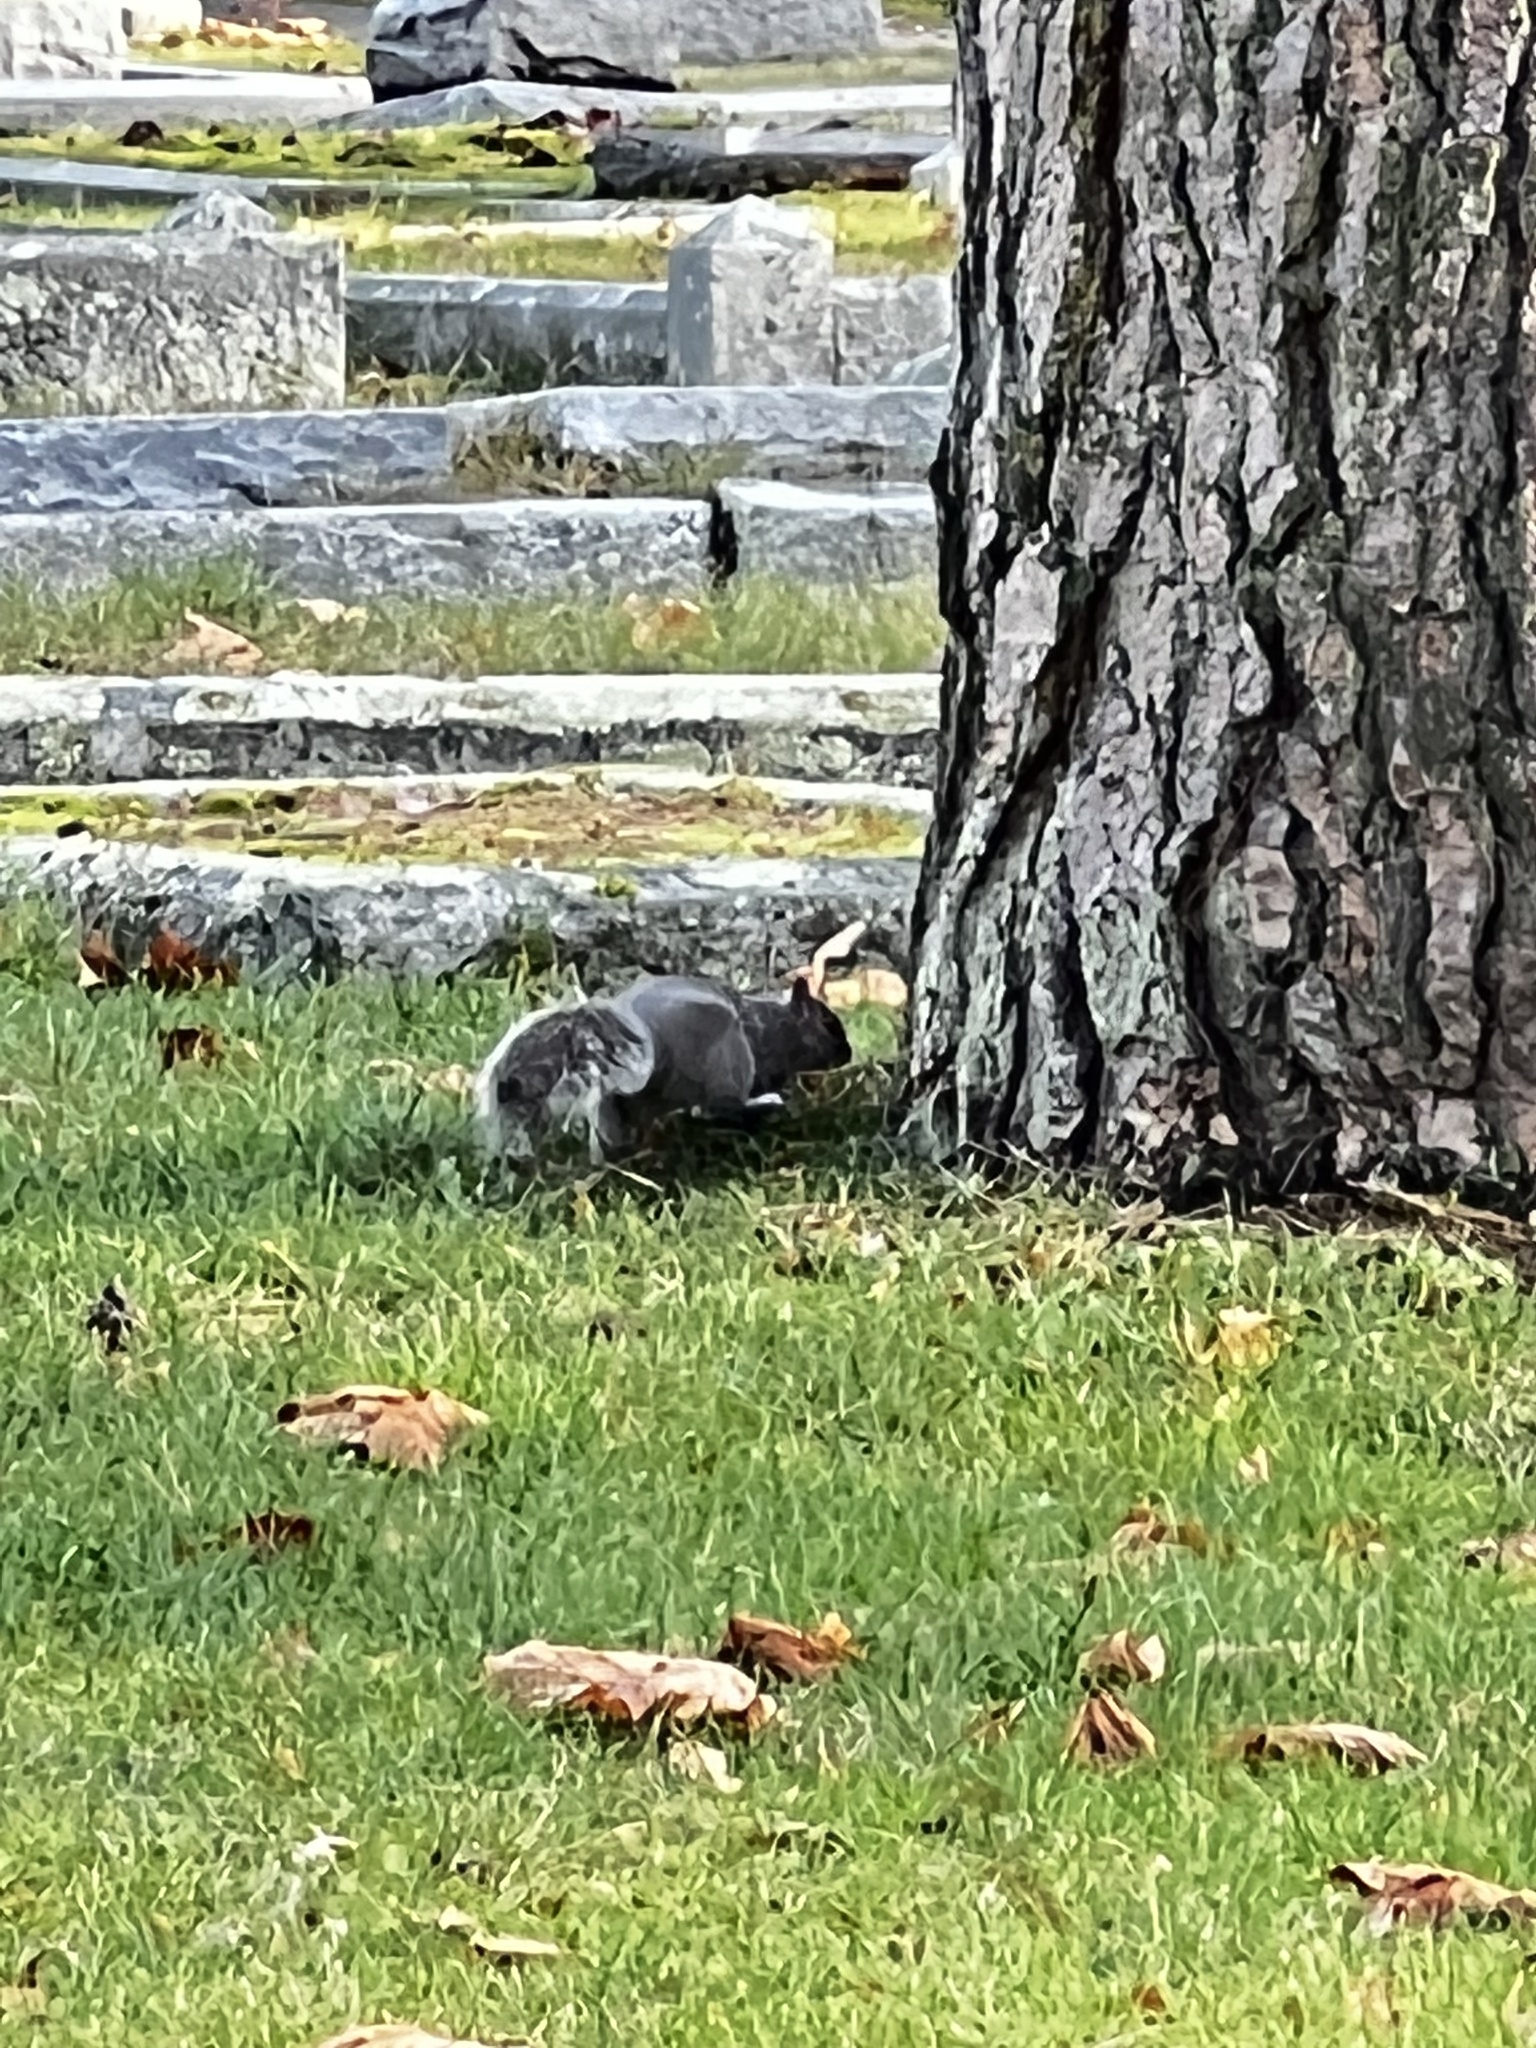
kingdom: Animalia
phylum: Chordata
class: Mammalia
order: Rodentia
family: Sciuridae
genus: Sciurus
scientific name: Sciurus carolinensis
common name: Eastern gray squirrel
